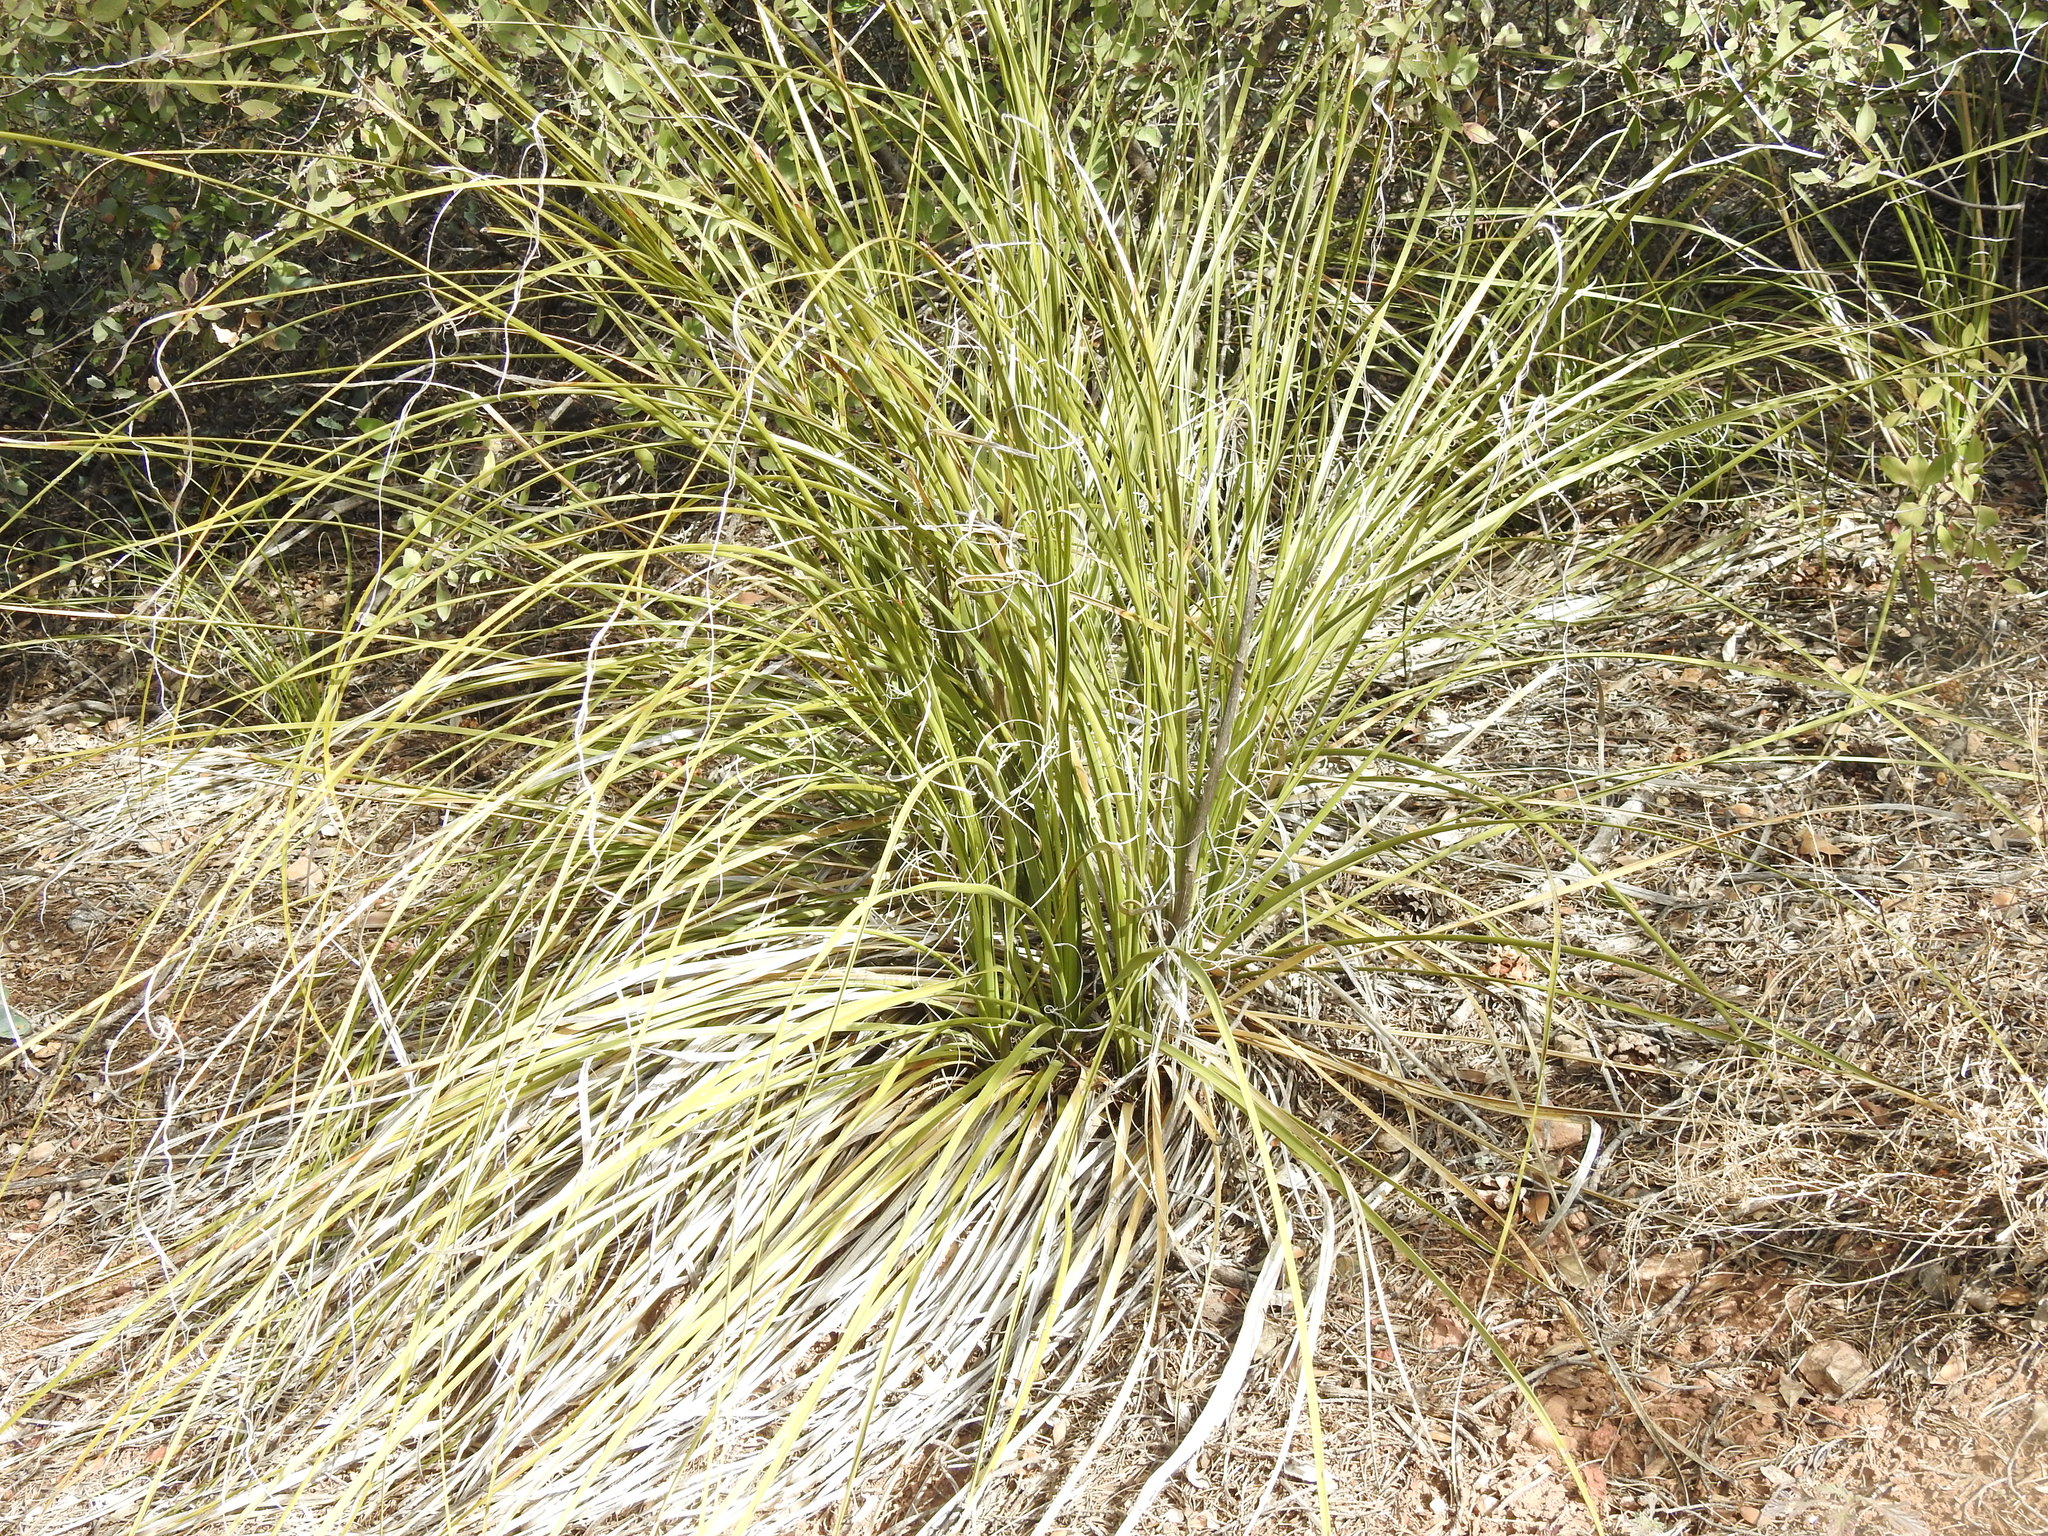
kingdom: Plantae
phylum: Tracheophyta
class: Liliopsida
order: Asparagales
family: Asparagaceae
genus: Nolina
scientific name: Nolina microcarpa
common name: Bear-grass
